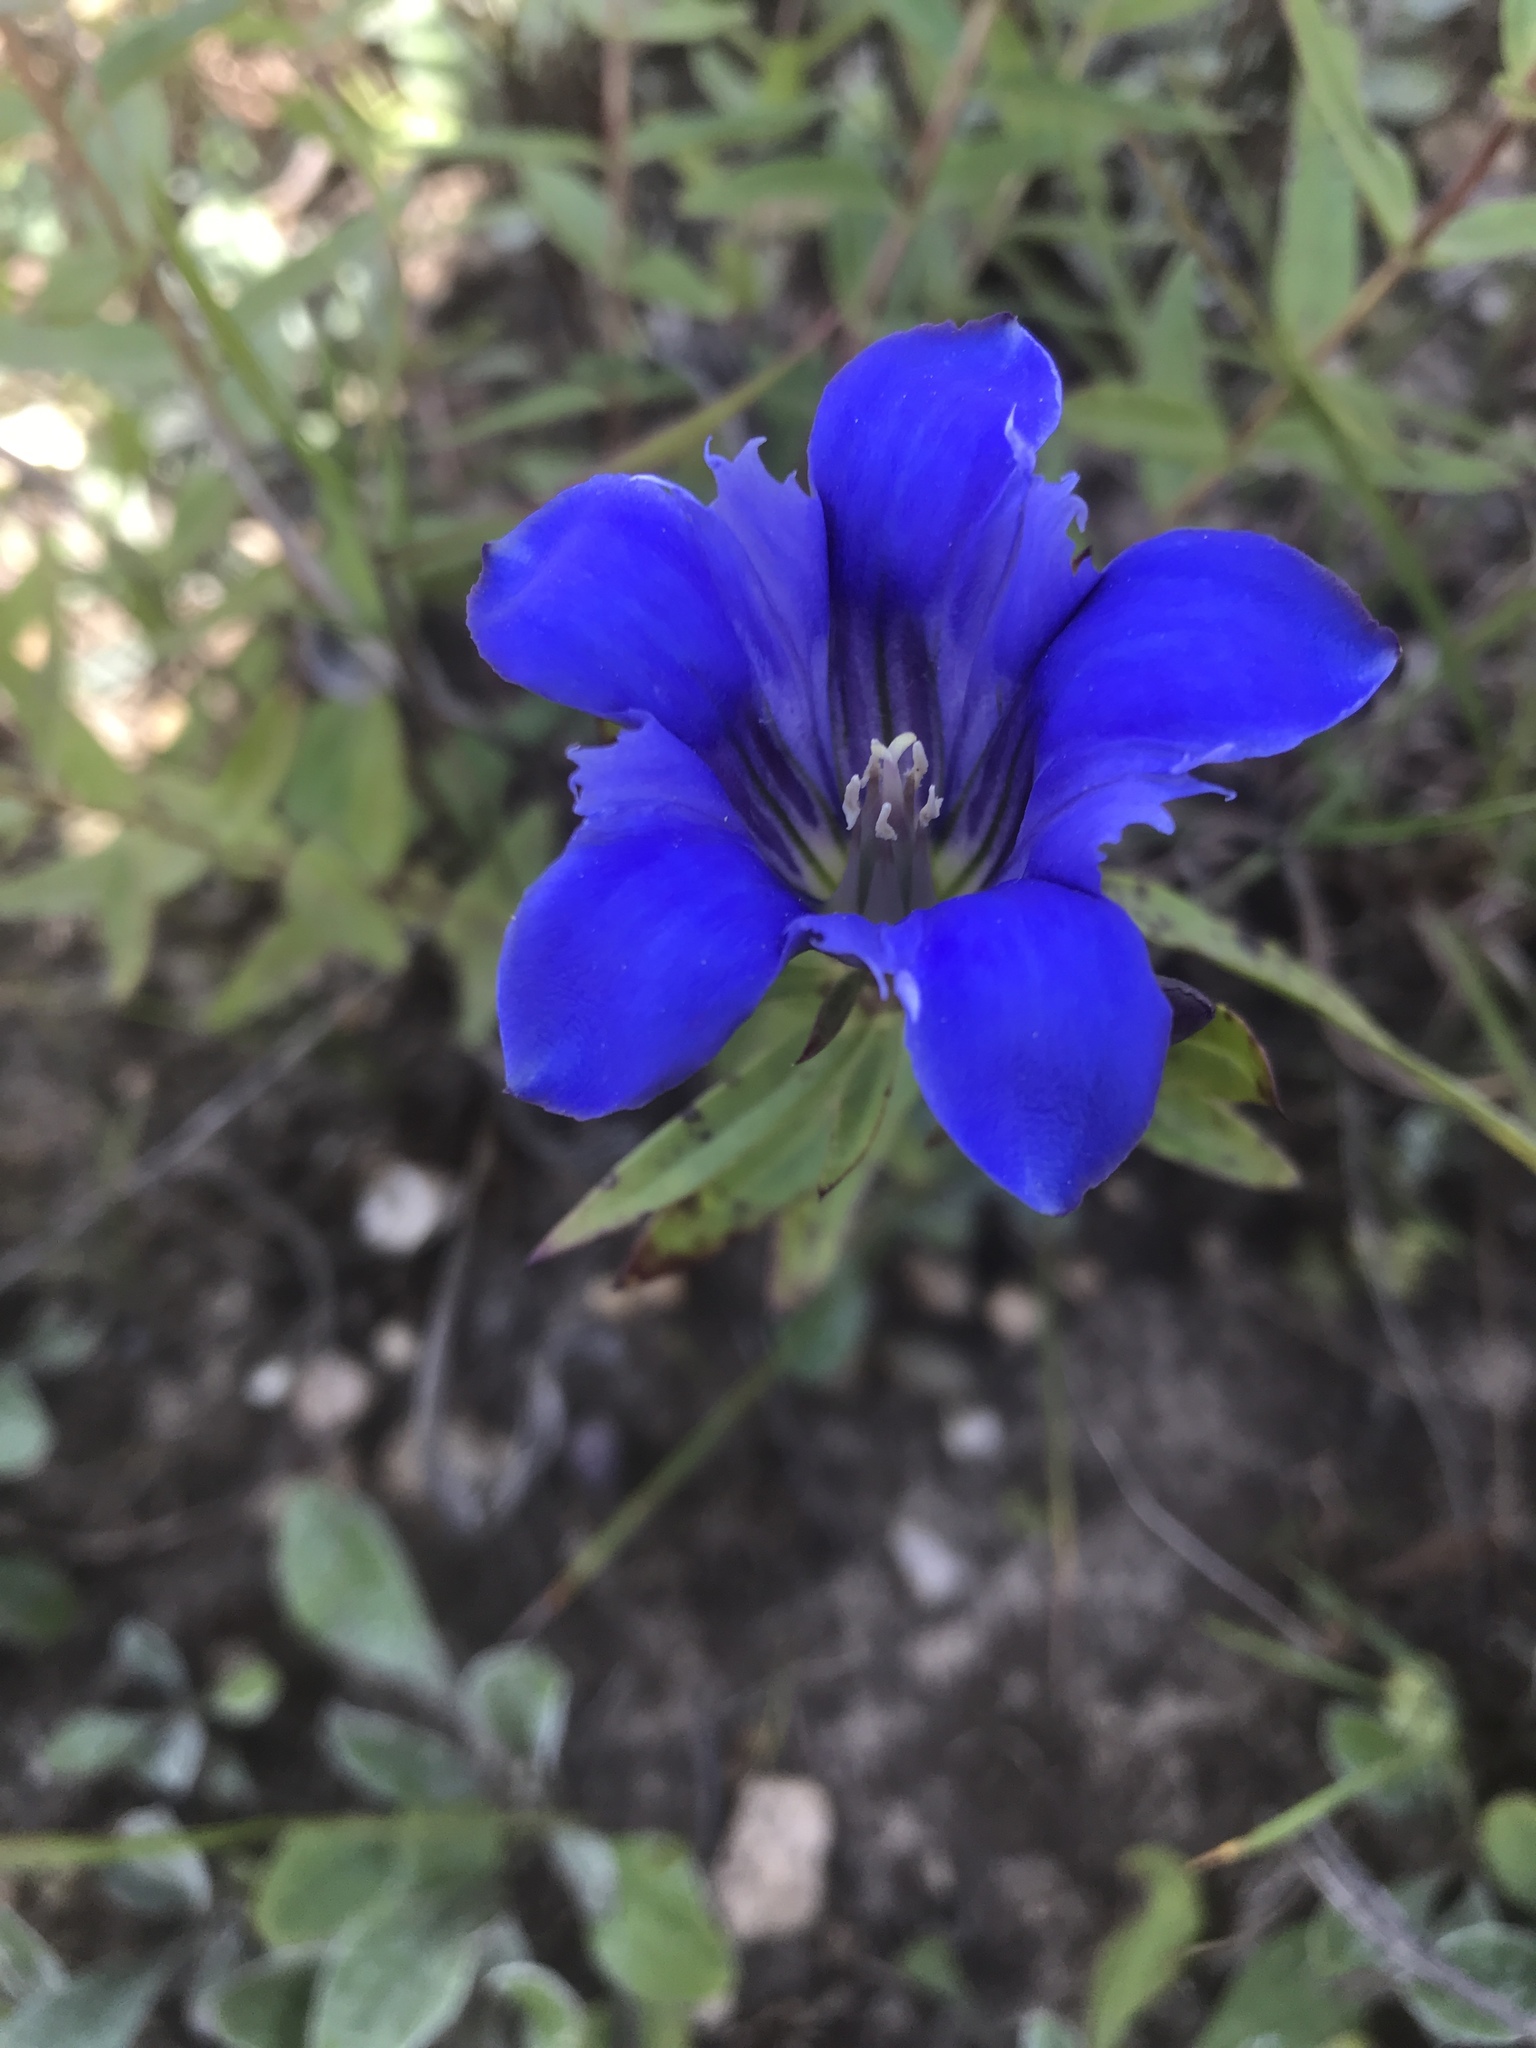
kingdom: Plantae
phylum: Tracheophyta
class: Magnoliopsida
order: Gentianales
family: Gentianaceae
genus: Gentiana
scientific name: Gentiana puberulenta
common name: Downy gentian
